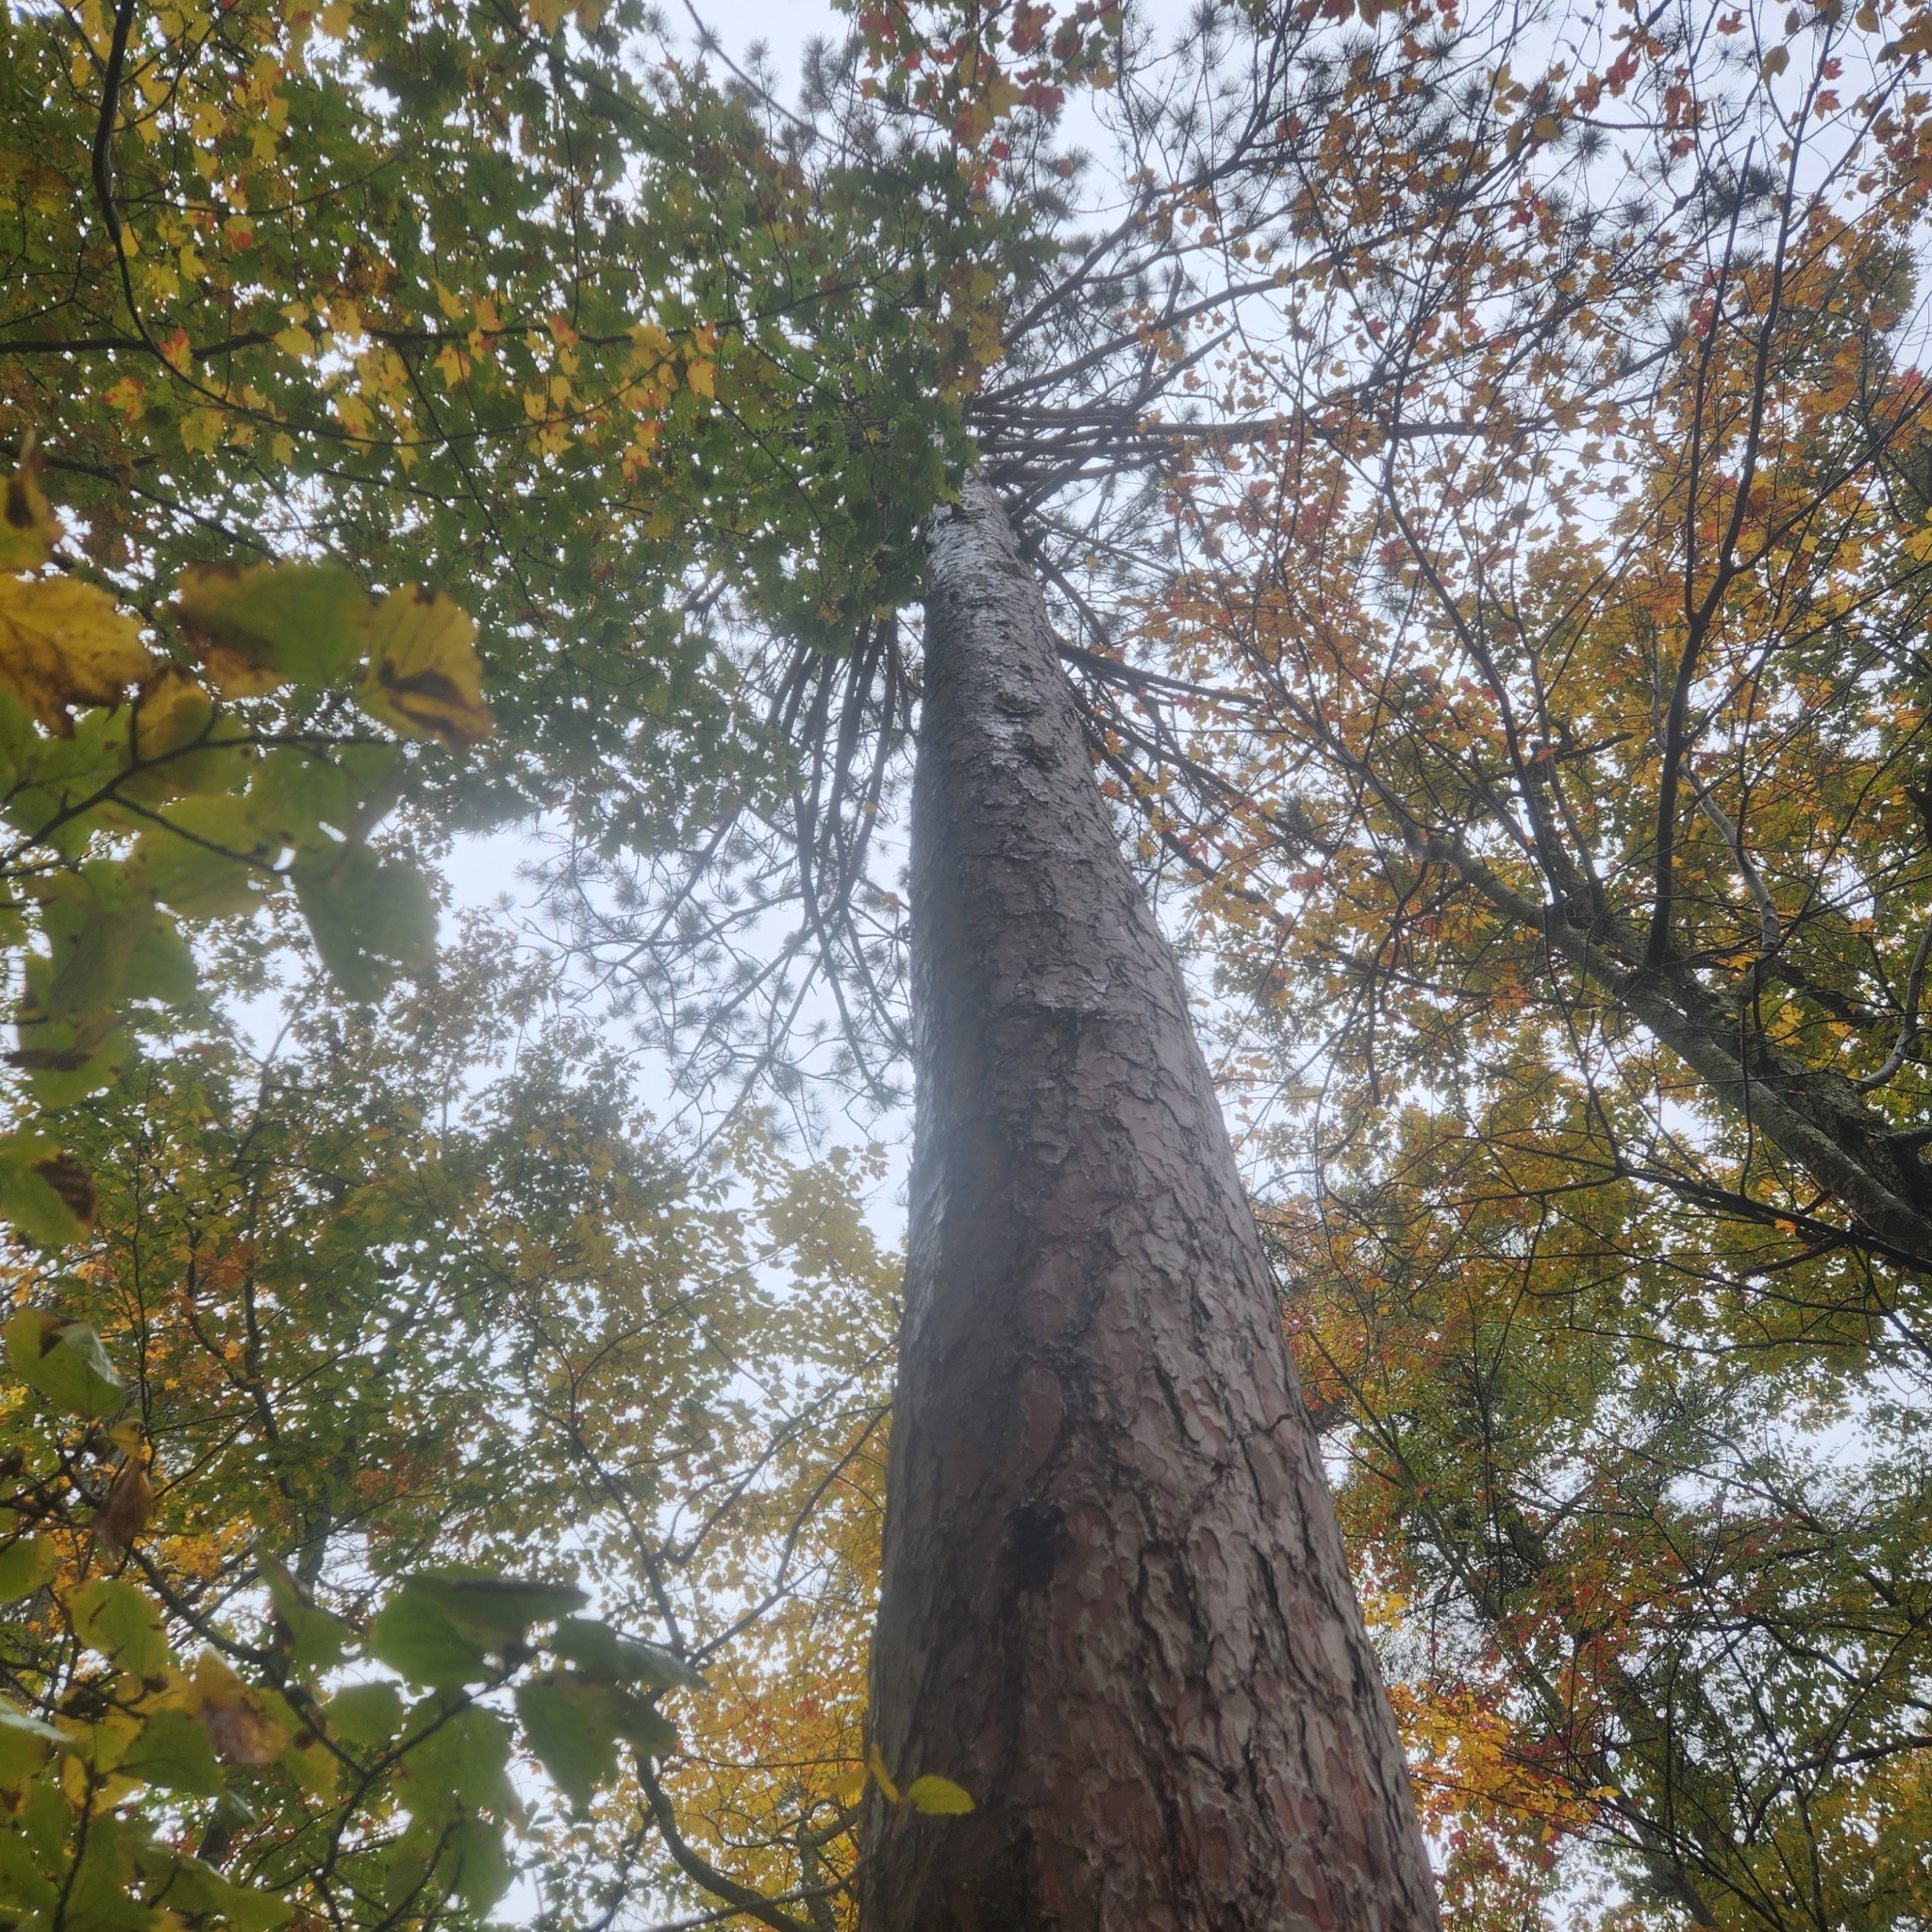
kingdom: Plantae
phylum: Tracheophyta
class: Pinopsida
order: Pinales
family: Pinaceae
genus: Pinus
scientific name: Pinus resinosa
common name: Norway pine
